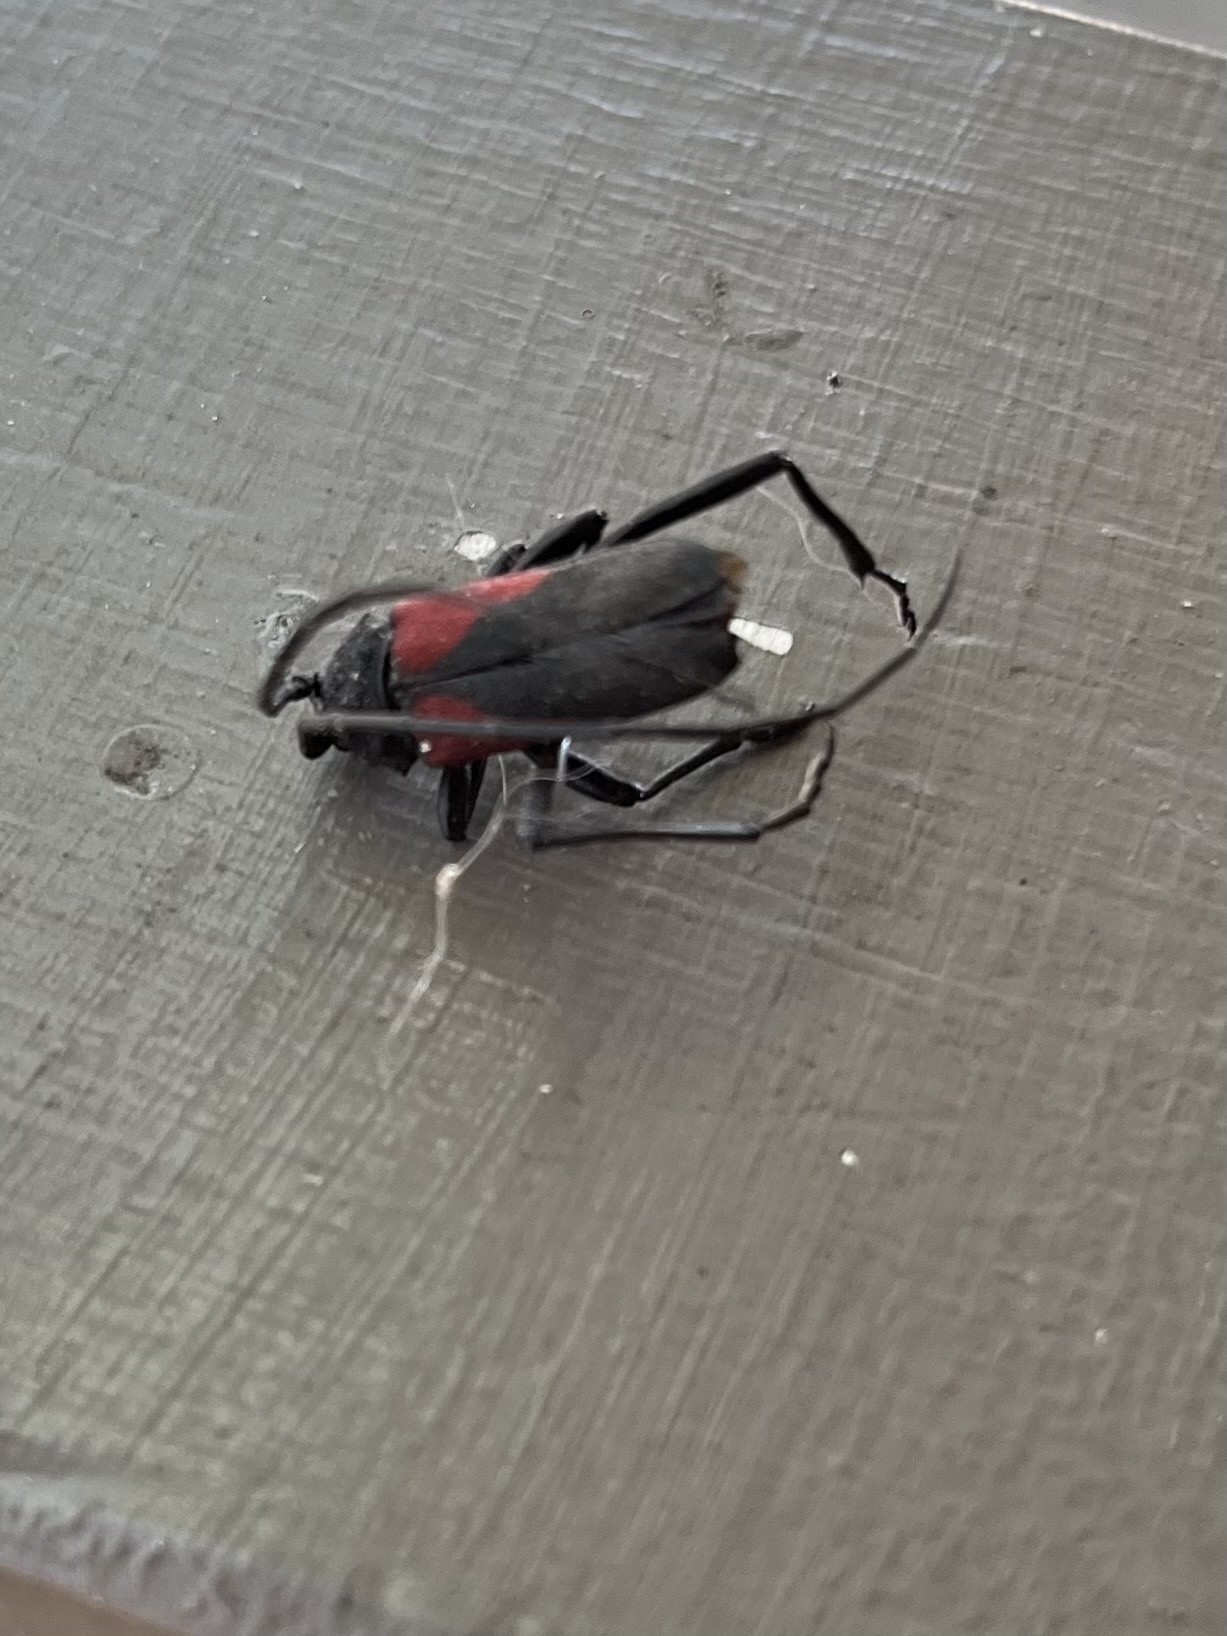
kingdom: Animalia
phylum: Arthropoda
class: Insecta
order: Coleoptera
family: Cerambycidae
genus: Purpuricenus
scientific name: Purpuricenus linsleyi
